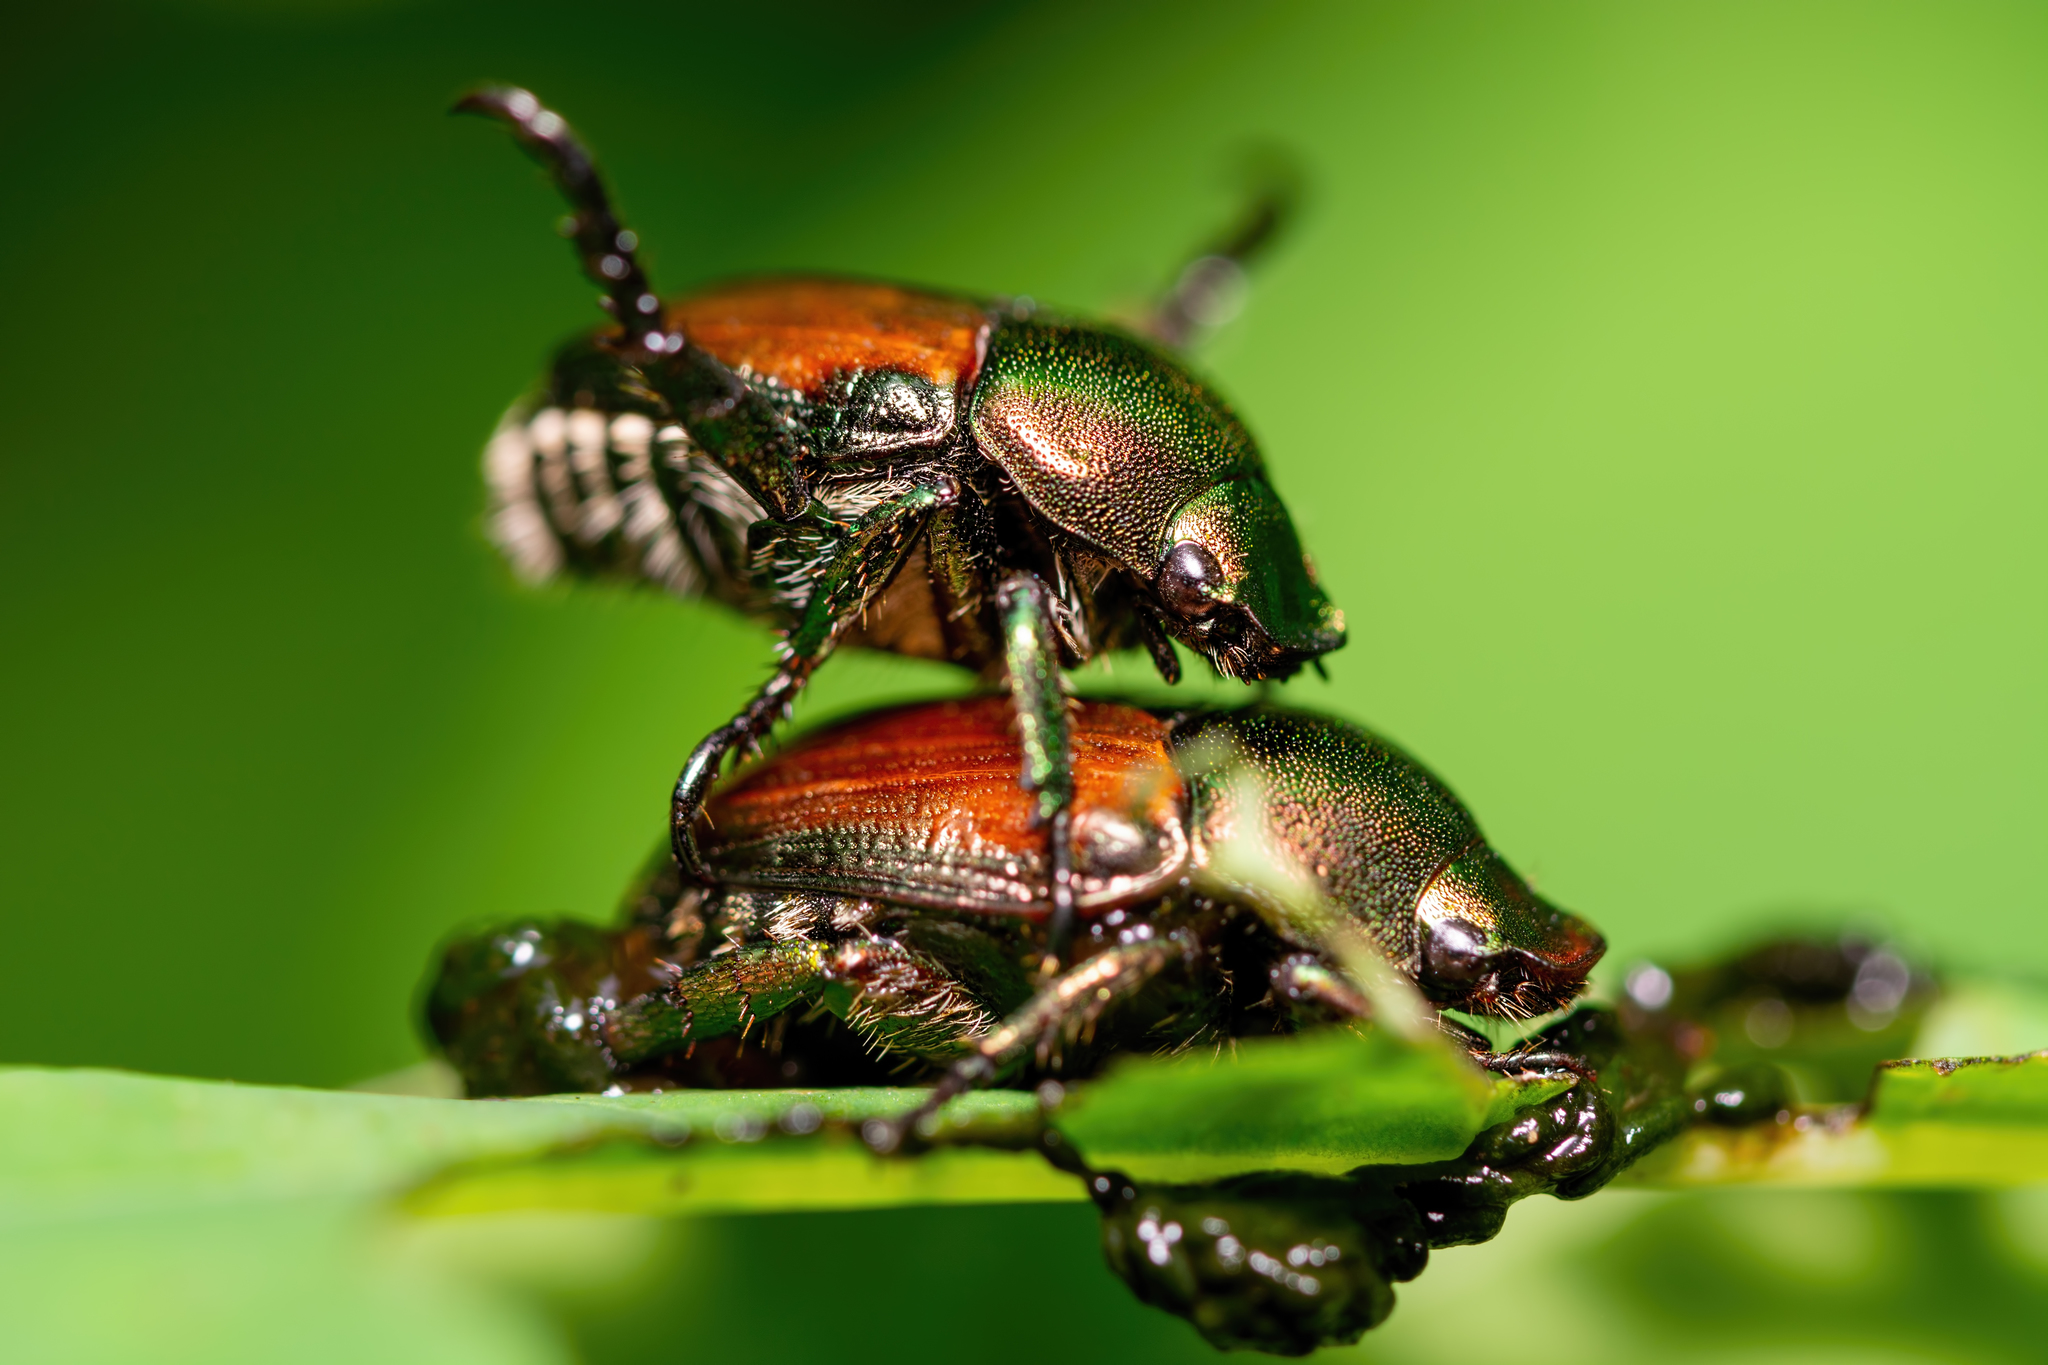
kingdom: Animalia
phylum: Arthropoda
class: Insecta
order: Coleoptera
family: Scarabaeidae
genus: Popillia
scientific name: Popillia japonica
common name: Japanese beetle
